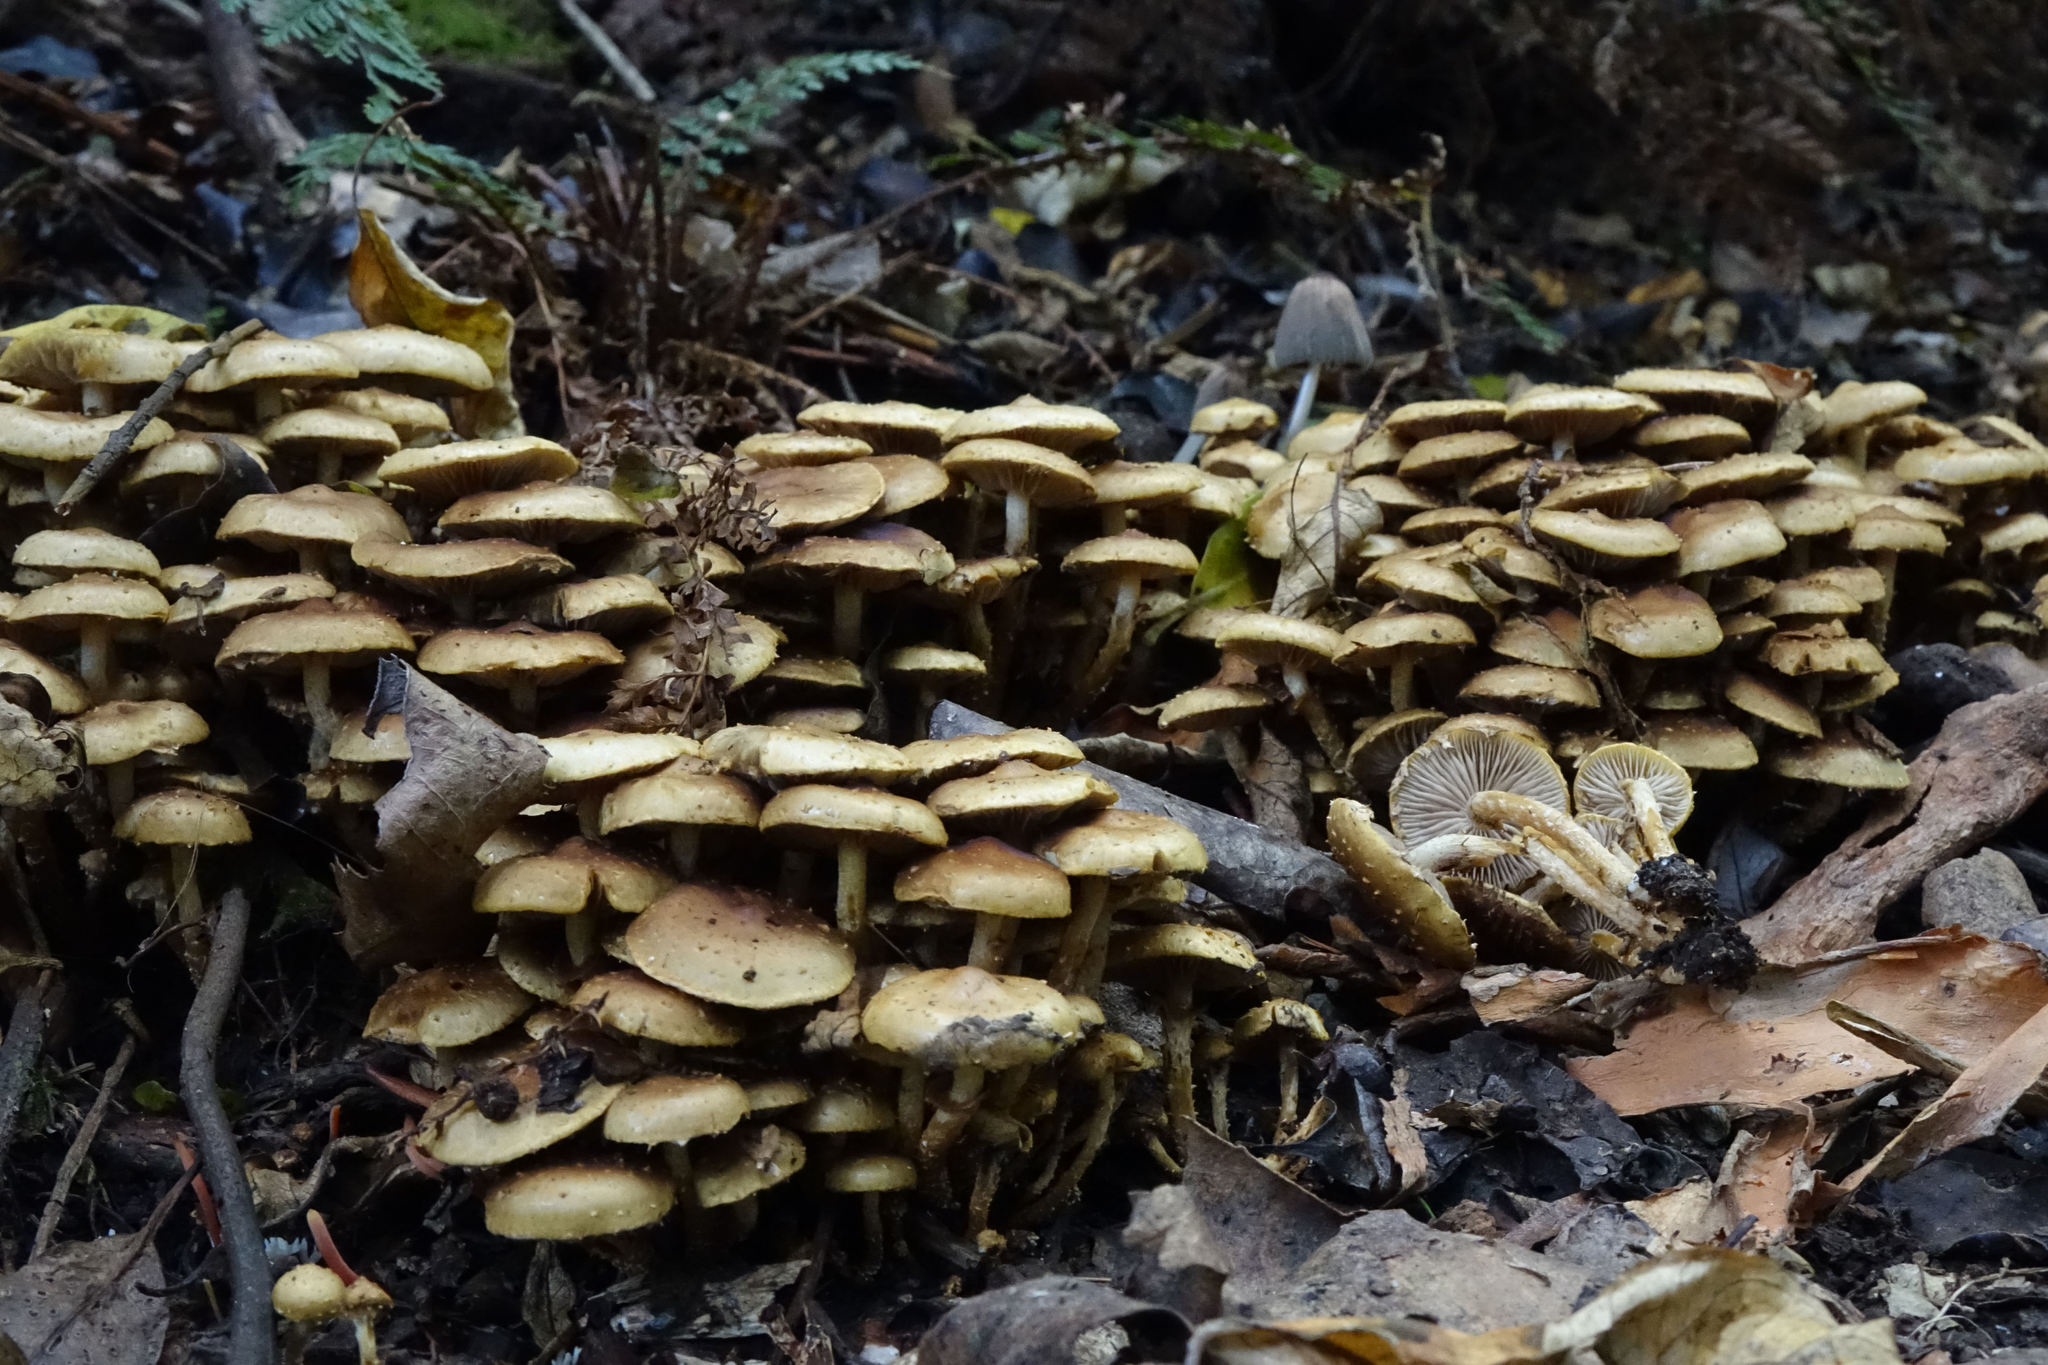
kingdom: Fungi
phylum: Basidiomycota
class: Agaricomycetes
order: Agaricales
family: Strophariaceae
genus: Pholiota
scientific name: Pholiota subflammans
